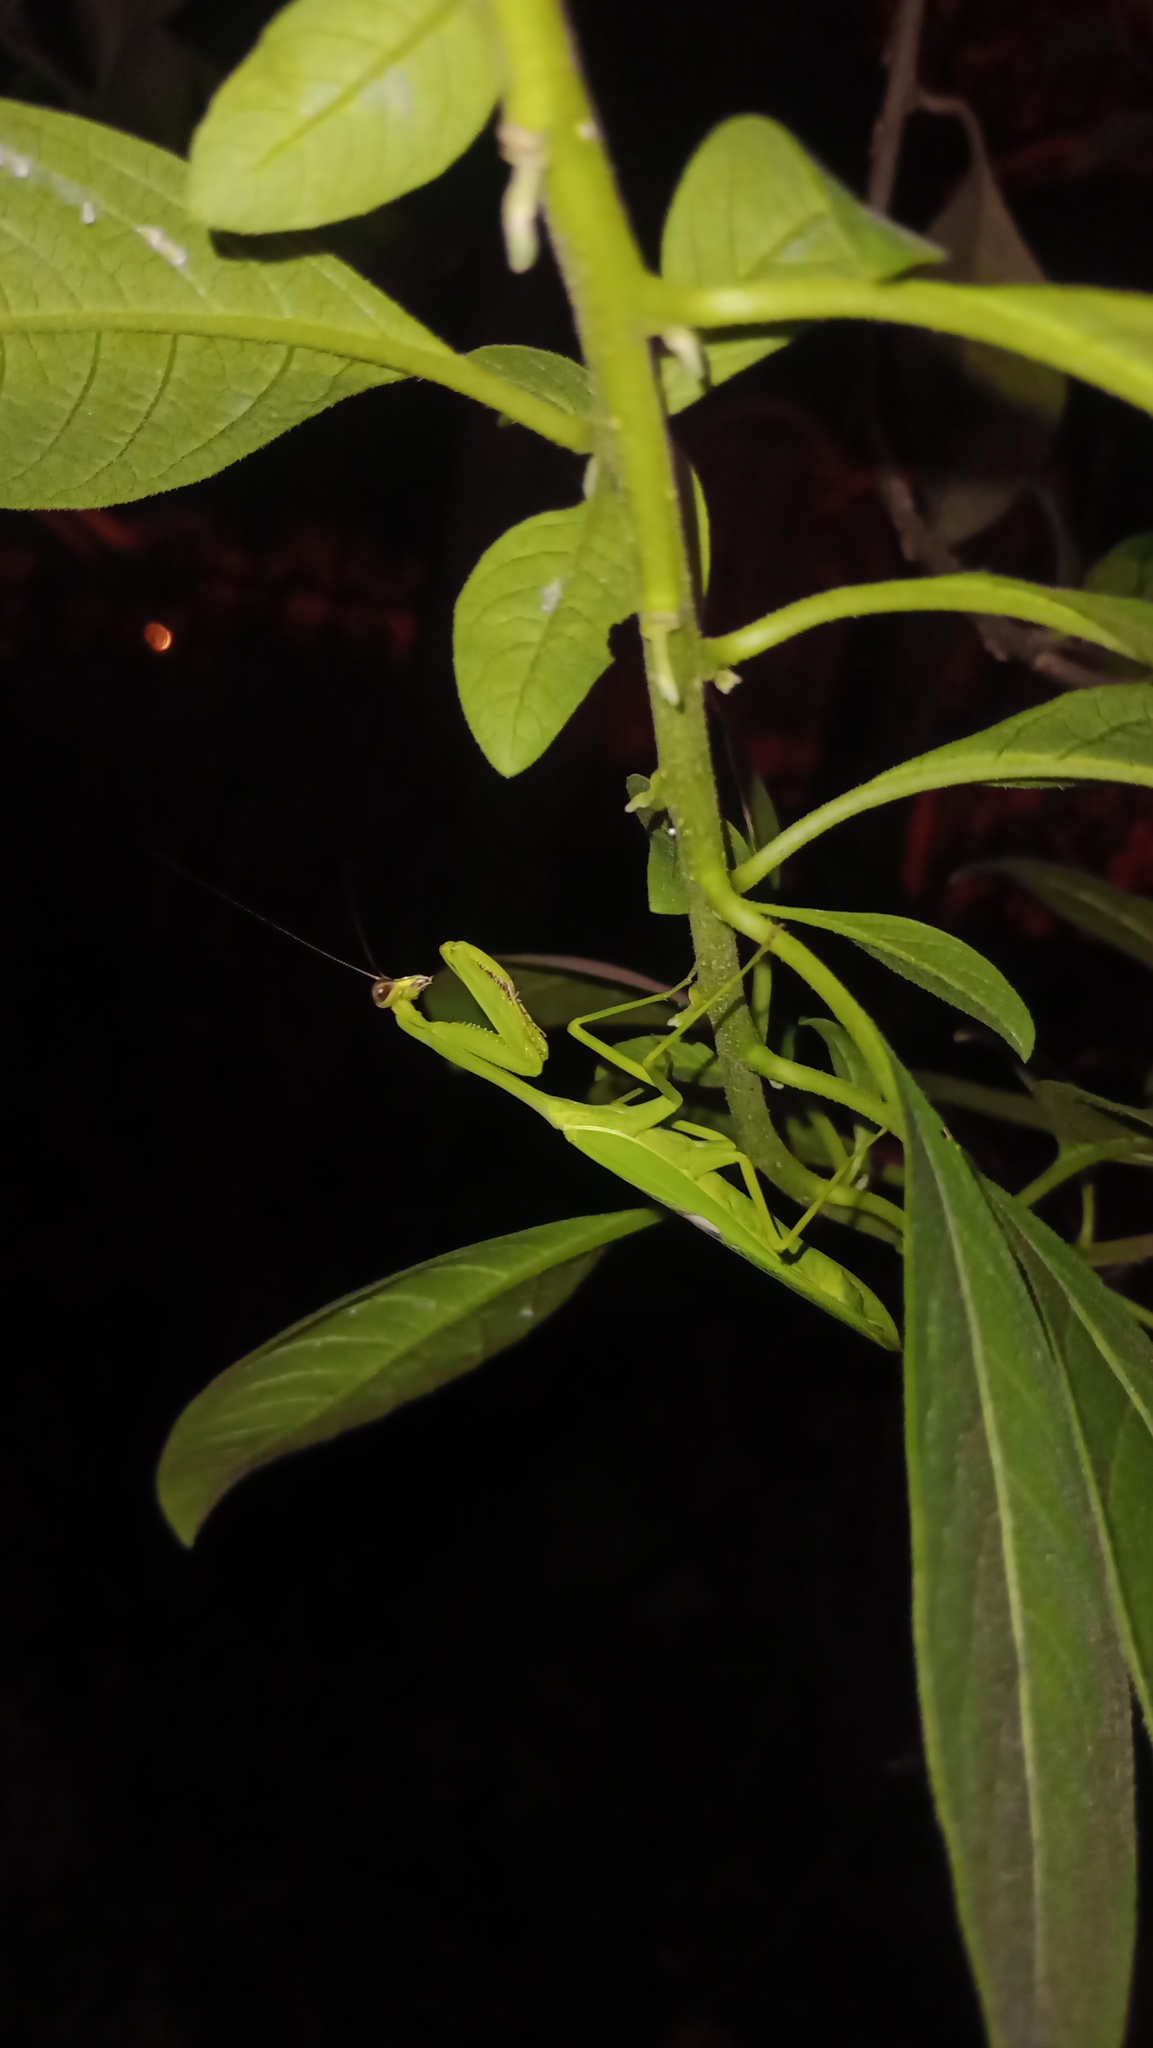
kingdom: Animalia
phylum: Arthropoda
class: Insecta
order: Mantodea
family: Mantidae
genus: Stagmatoptera
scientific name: Stagmatoptera hyaloptera
